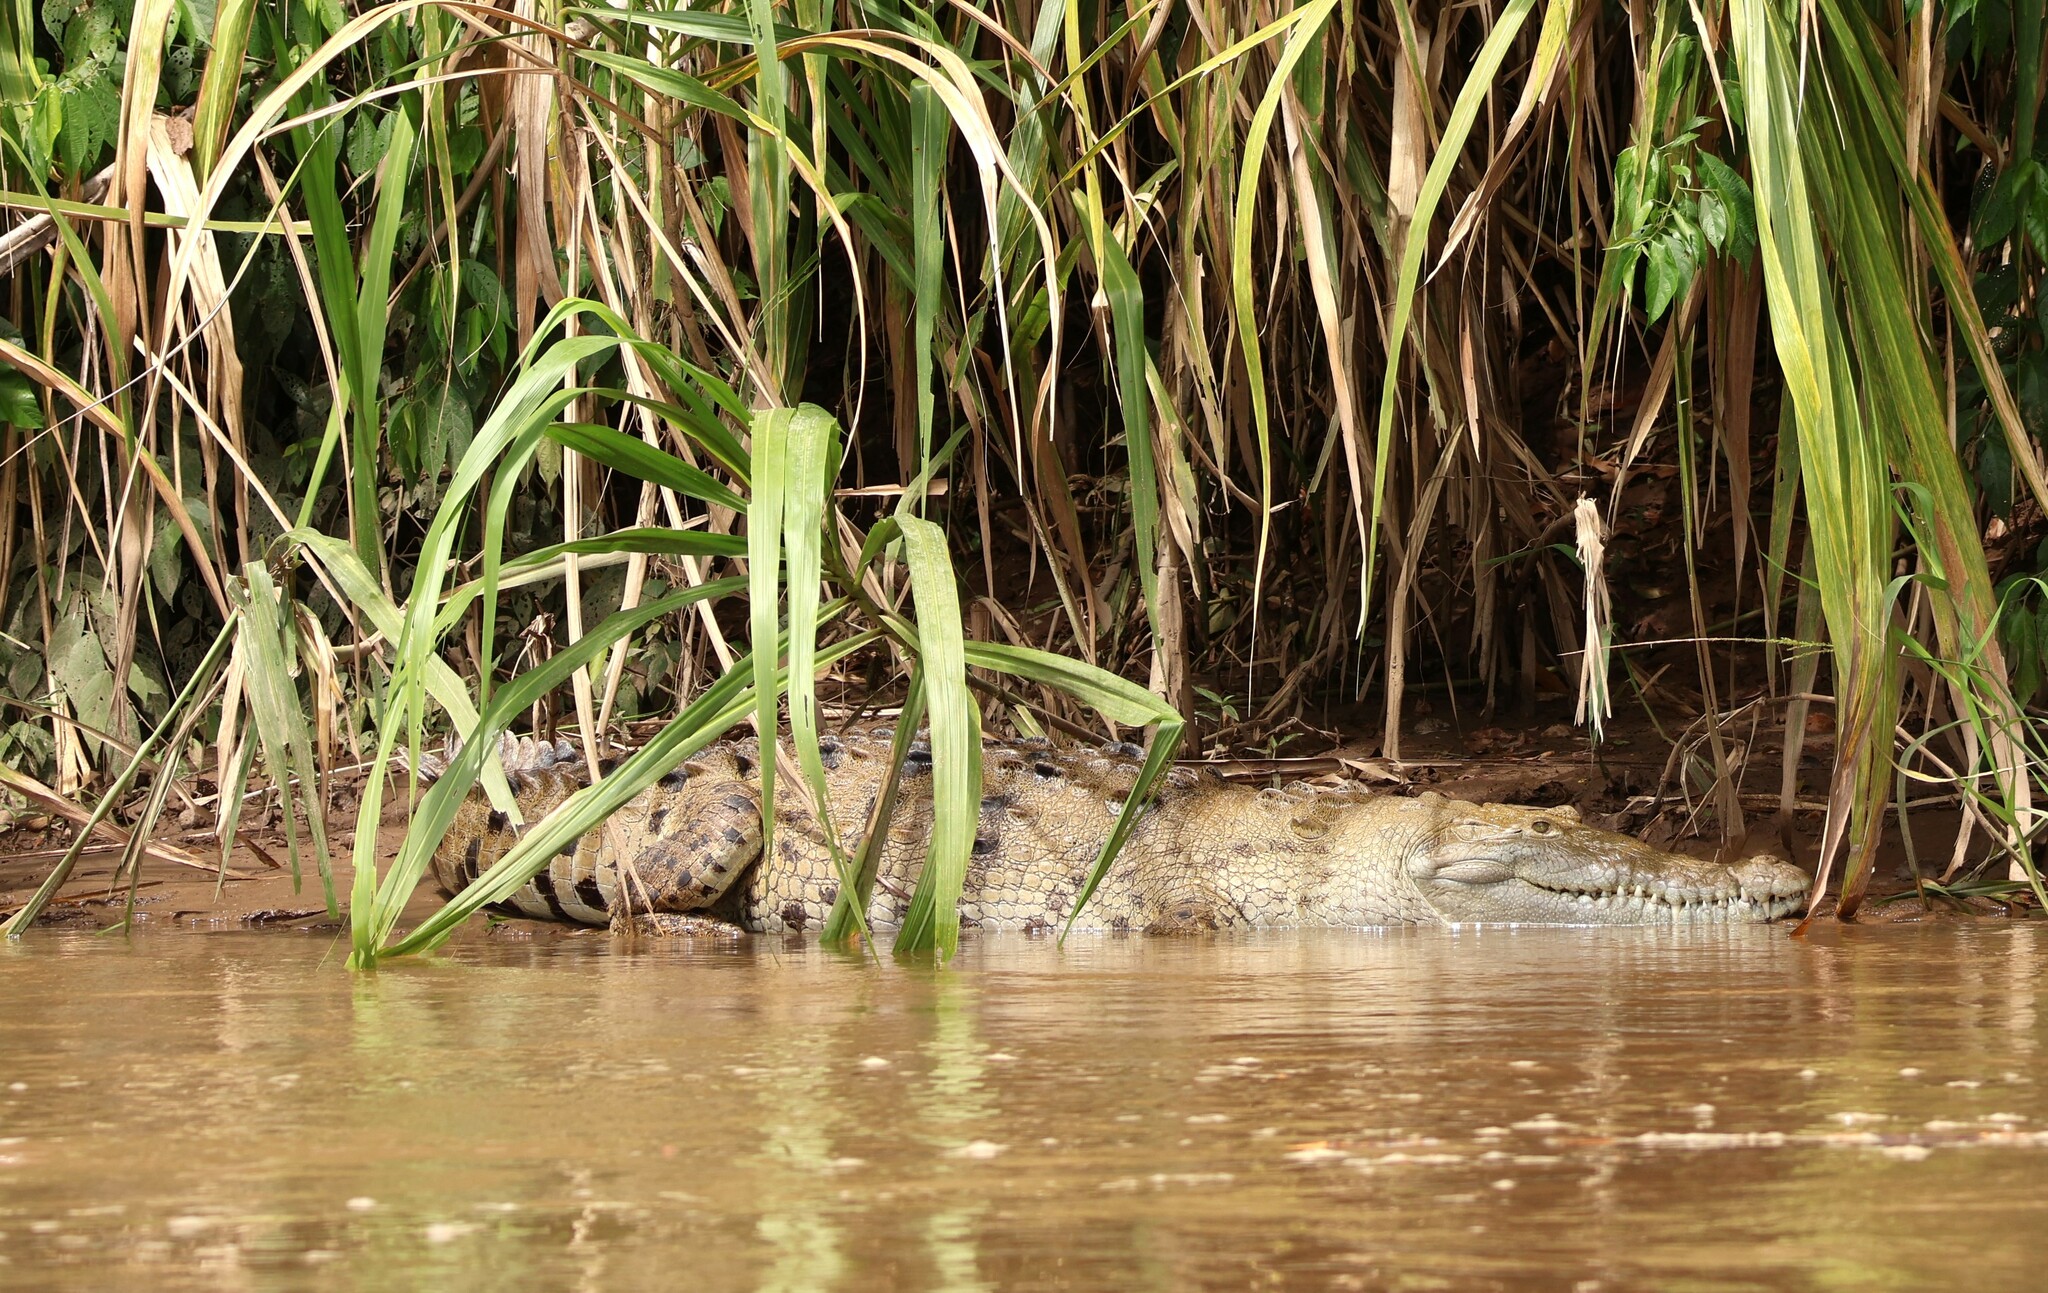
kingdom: Animalia
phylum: Chordata
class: Crocodylia
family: Crocodylidae
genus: Crocodylus
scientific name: Crocodylus acutus
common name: American crocodile
